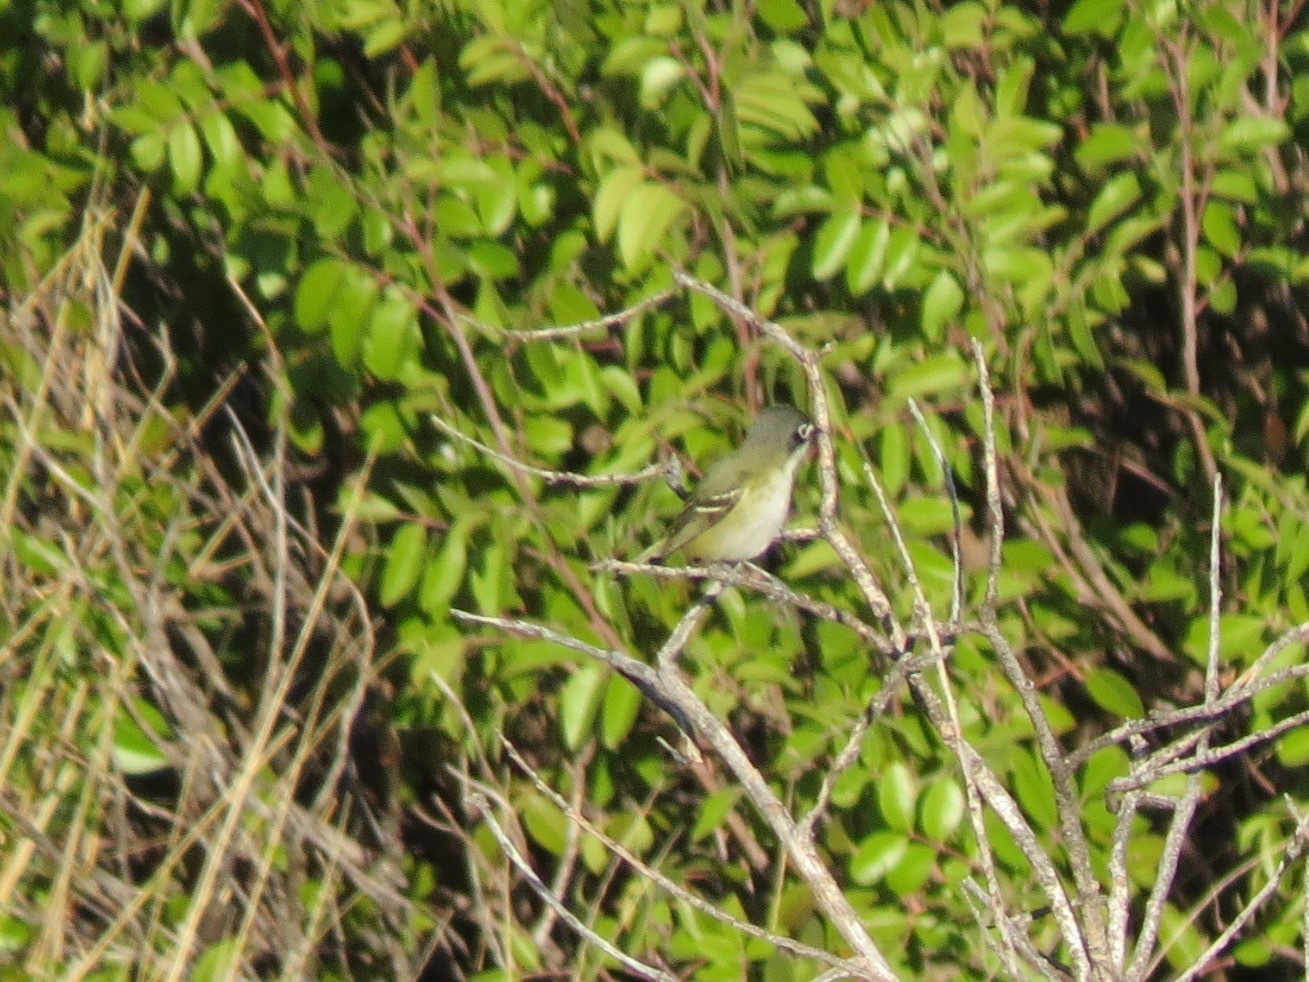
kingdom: Animalia
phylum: Chordata
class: Aves
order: Passeriformes
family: Vireonidae
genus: Vireo
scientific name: Vireo atricapilla
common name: Black-capped vireo
